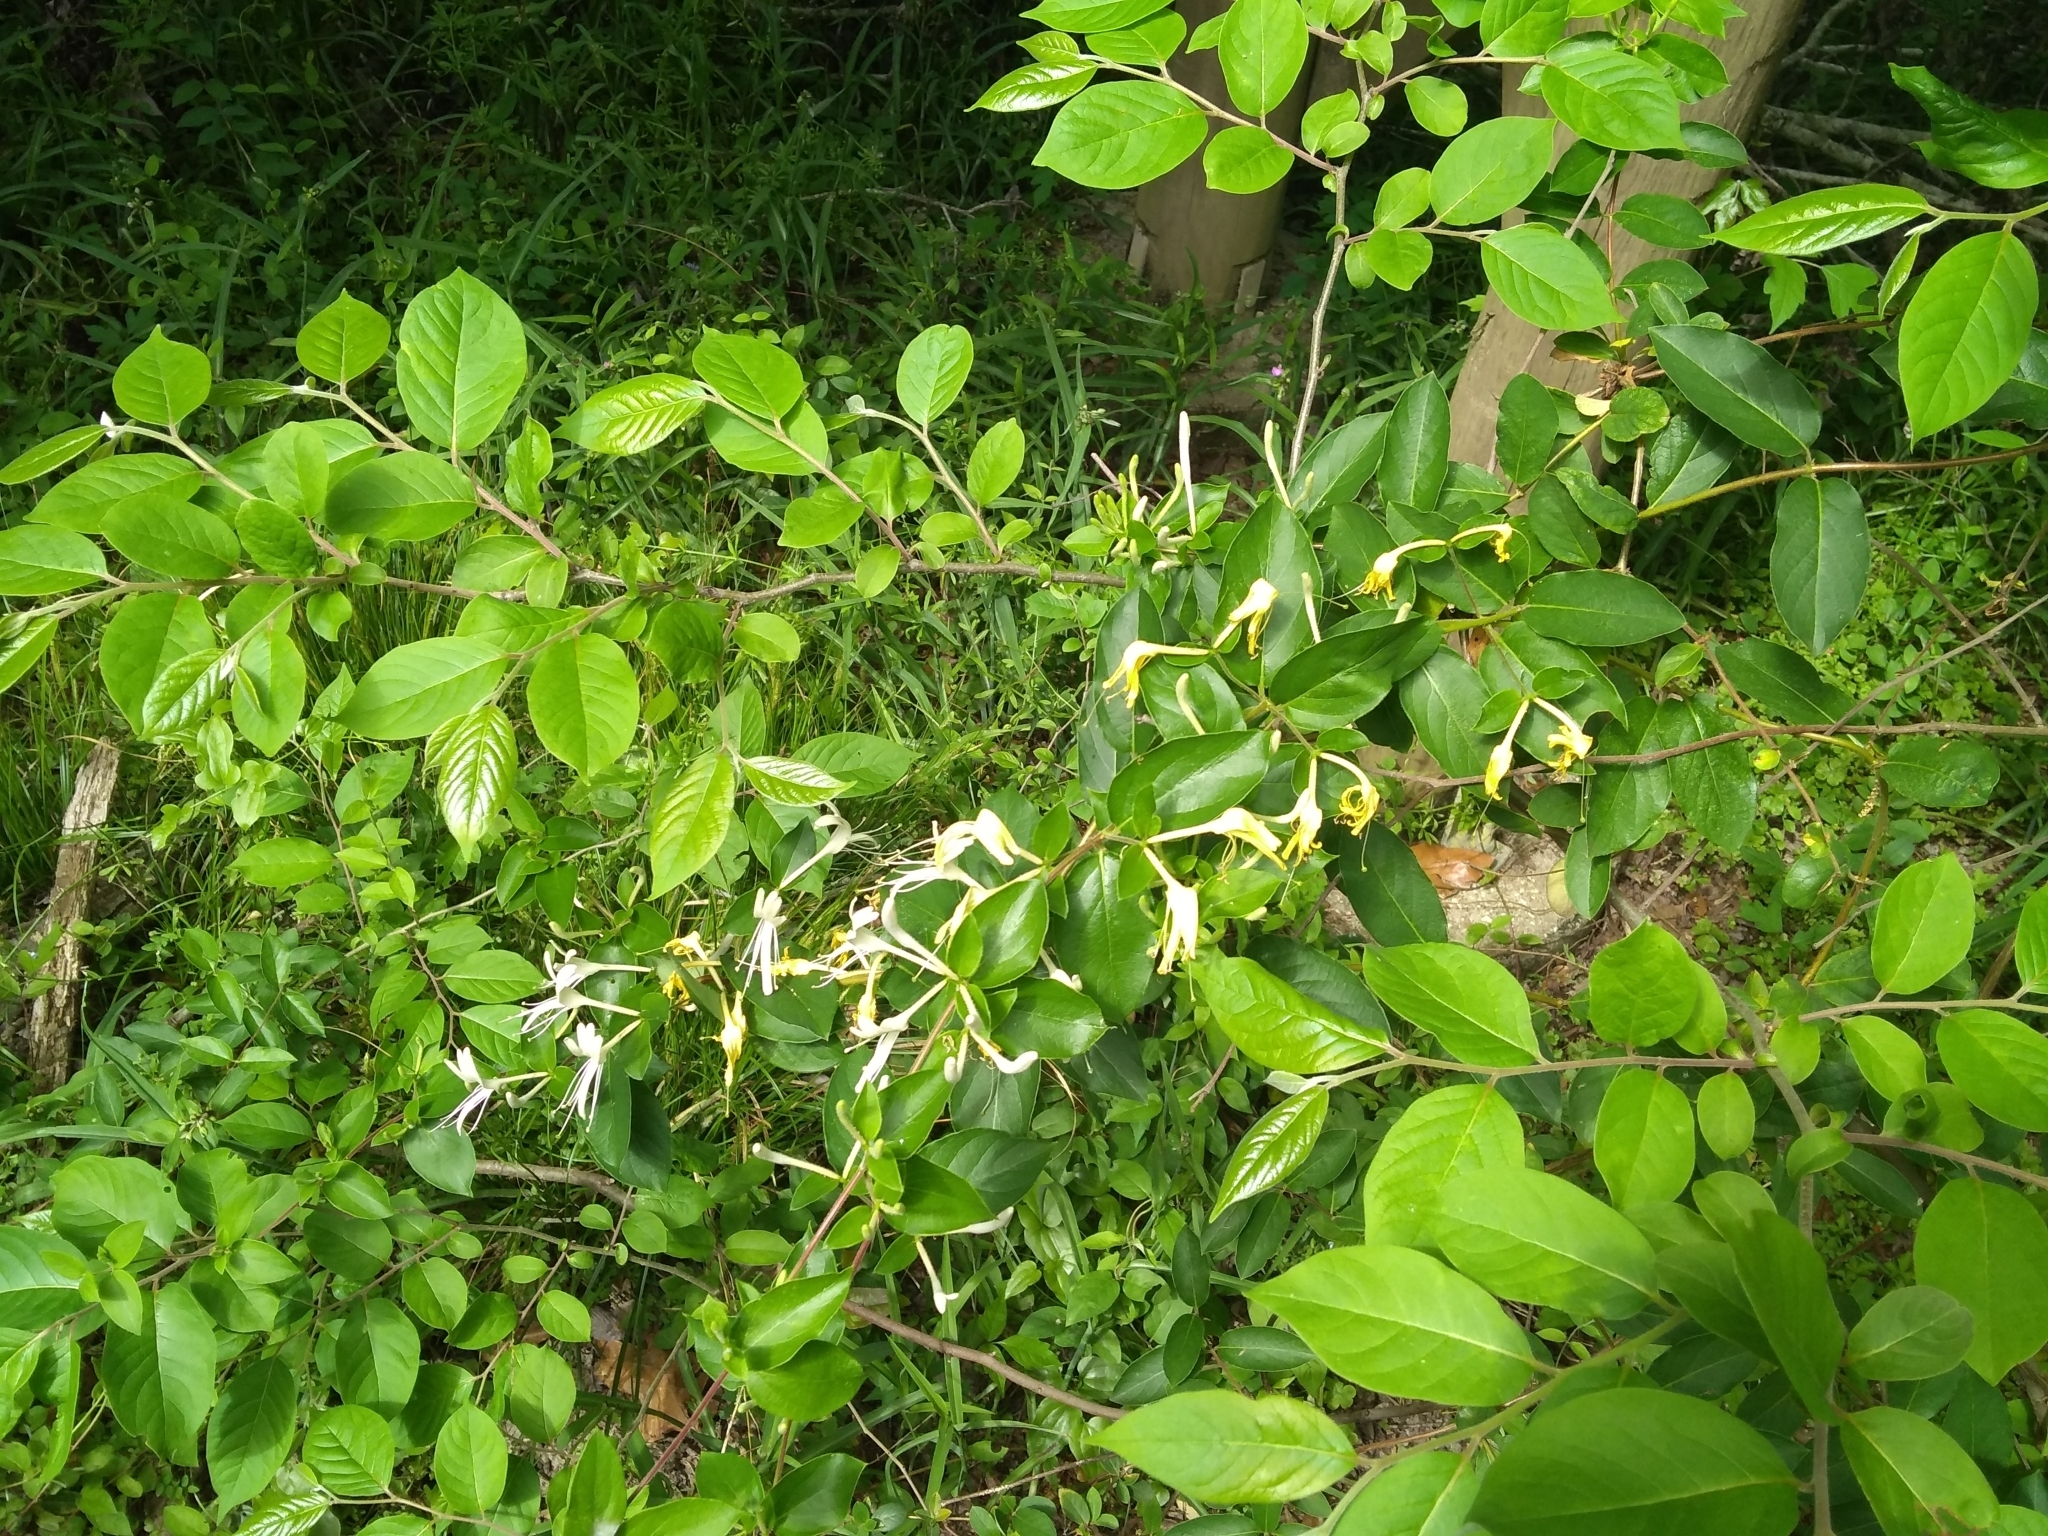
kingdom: Plantae
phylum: Tracheophyta
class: Magnoliopsida
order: Dipsacales
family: Caprifoliaceae
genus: Lonicera
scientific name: Lonicera japonica
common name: Japanese honeysuckle
